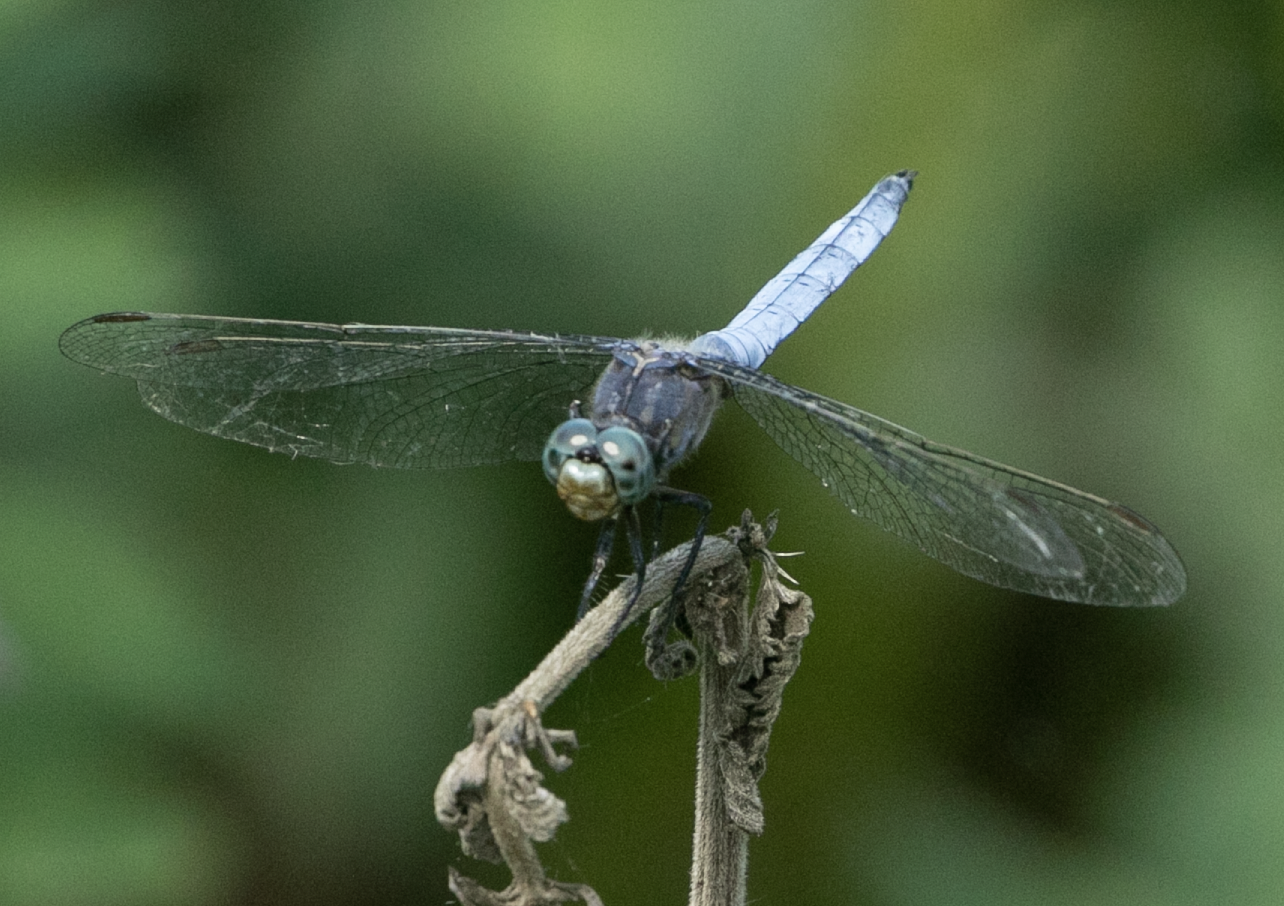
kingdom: Animalia
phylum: Arthropoda
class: Insecta
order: Odonata
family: Libellulidae
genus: Orthetrum
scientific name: Orthetrum coerulescens
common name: Keeled skimmer
